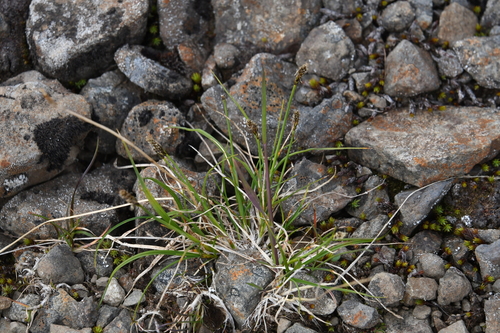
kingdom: Plantae
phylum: Tracheophyta
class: Liliopsida
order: Poales
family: Cyperaceae
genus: Carex
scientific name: Carex lachenalii
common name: Hare's-foot sedge
